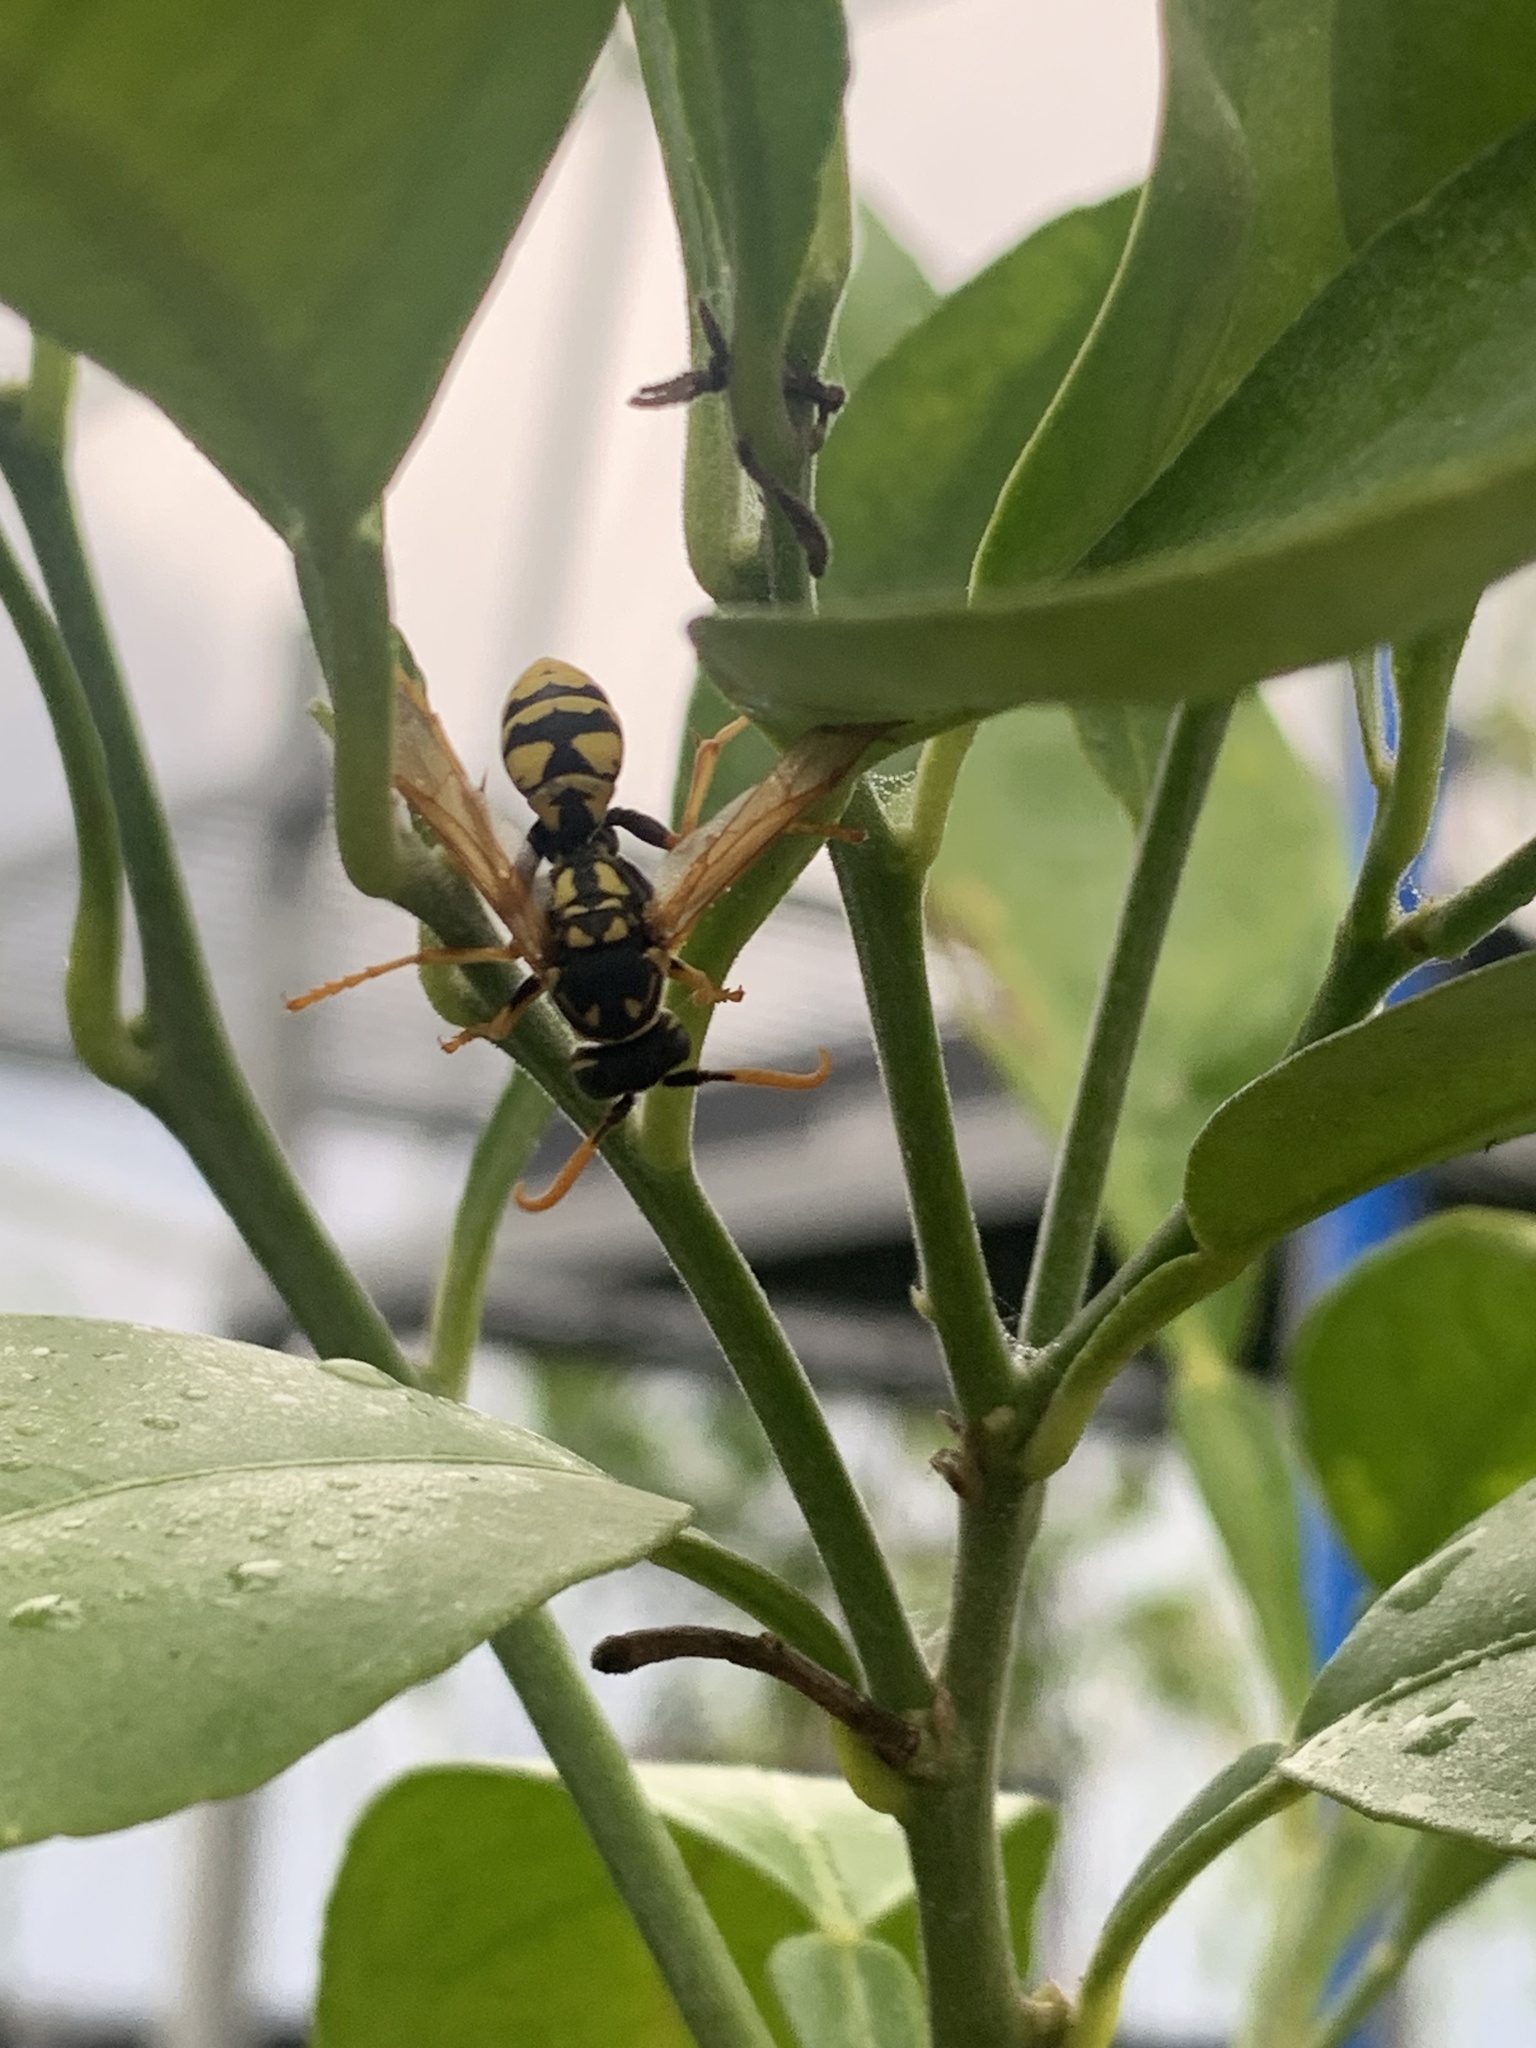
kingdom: Animalia
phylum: Arthropoda
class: Insecta
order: Hymenoptera
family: Eumenidae
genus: Polistes
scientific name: Polistes dominula
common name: Paper wasp
